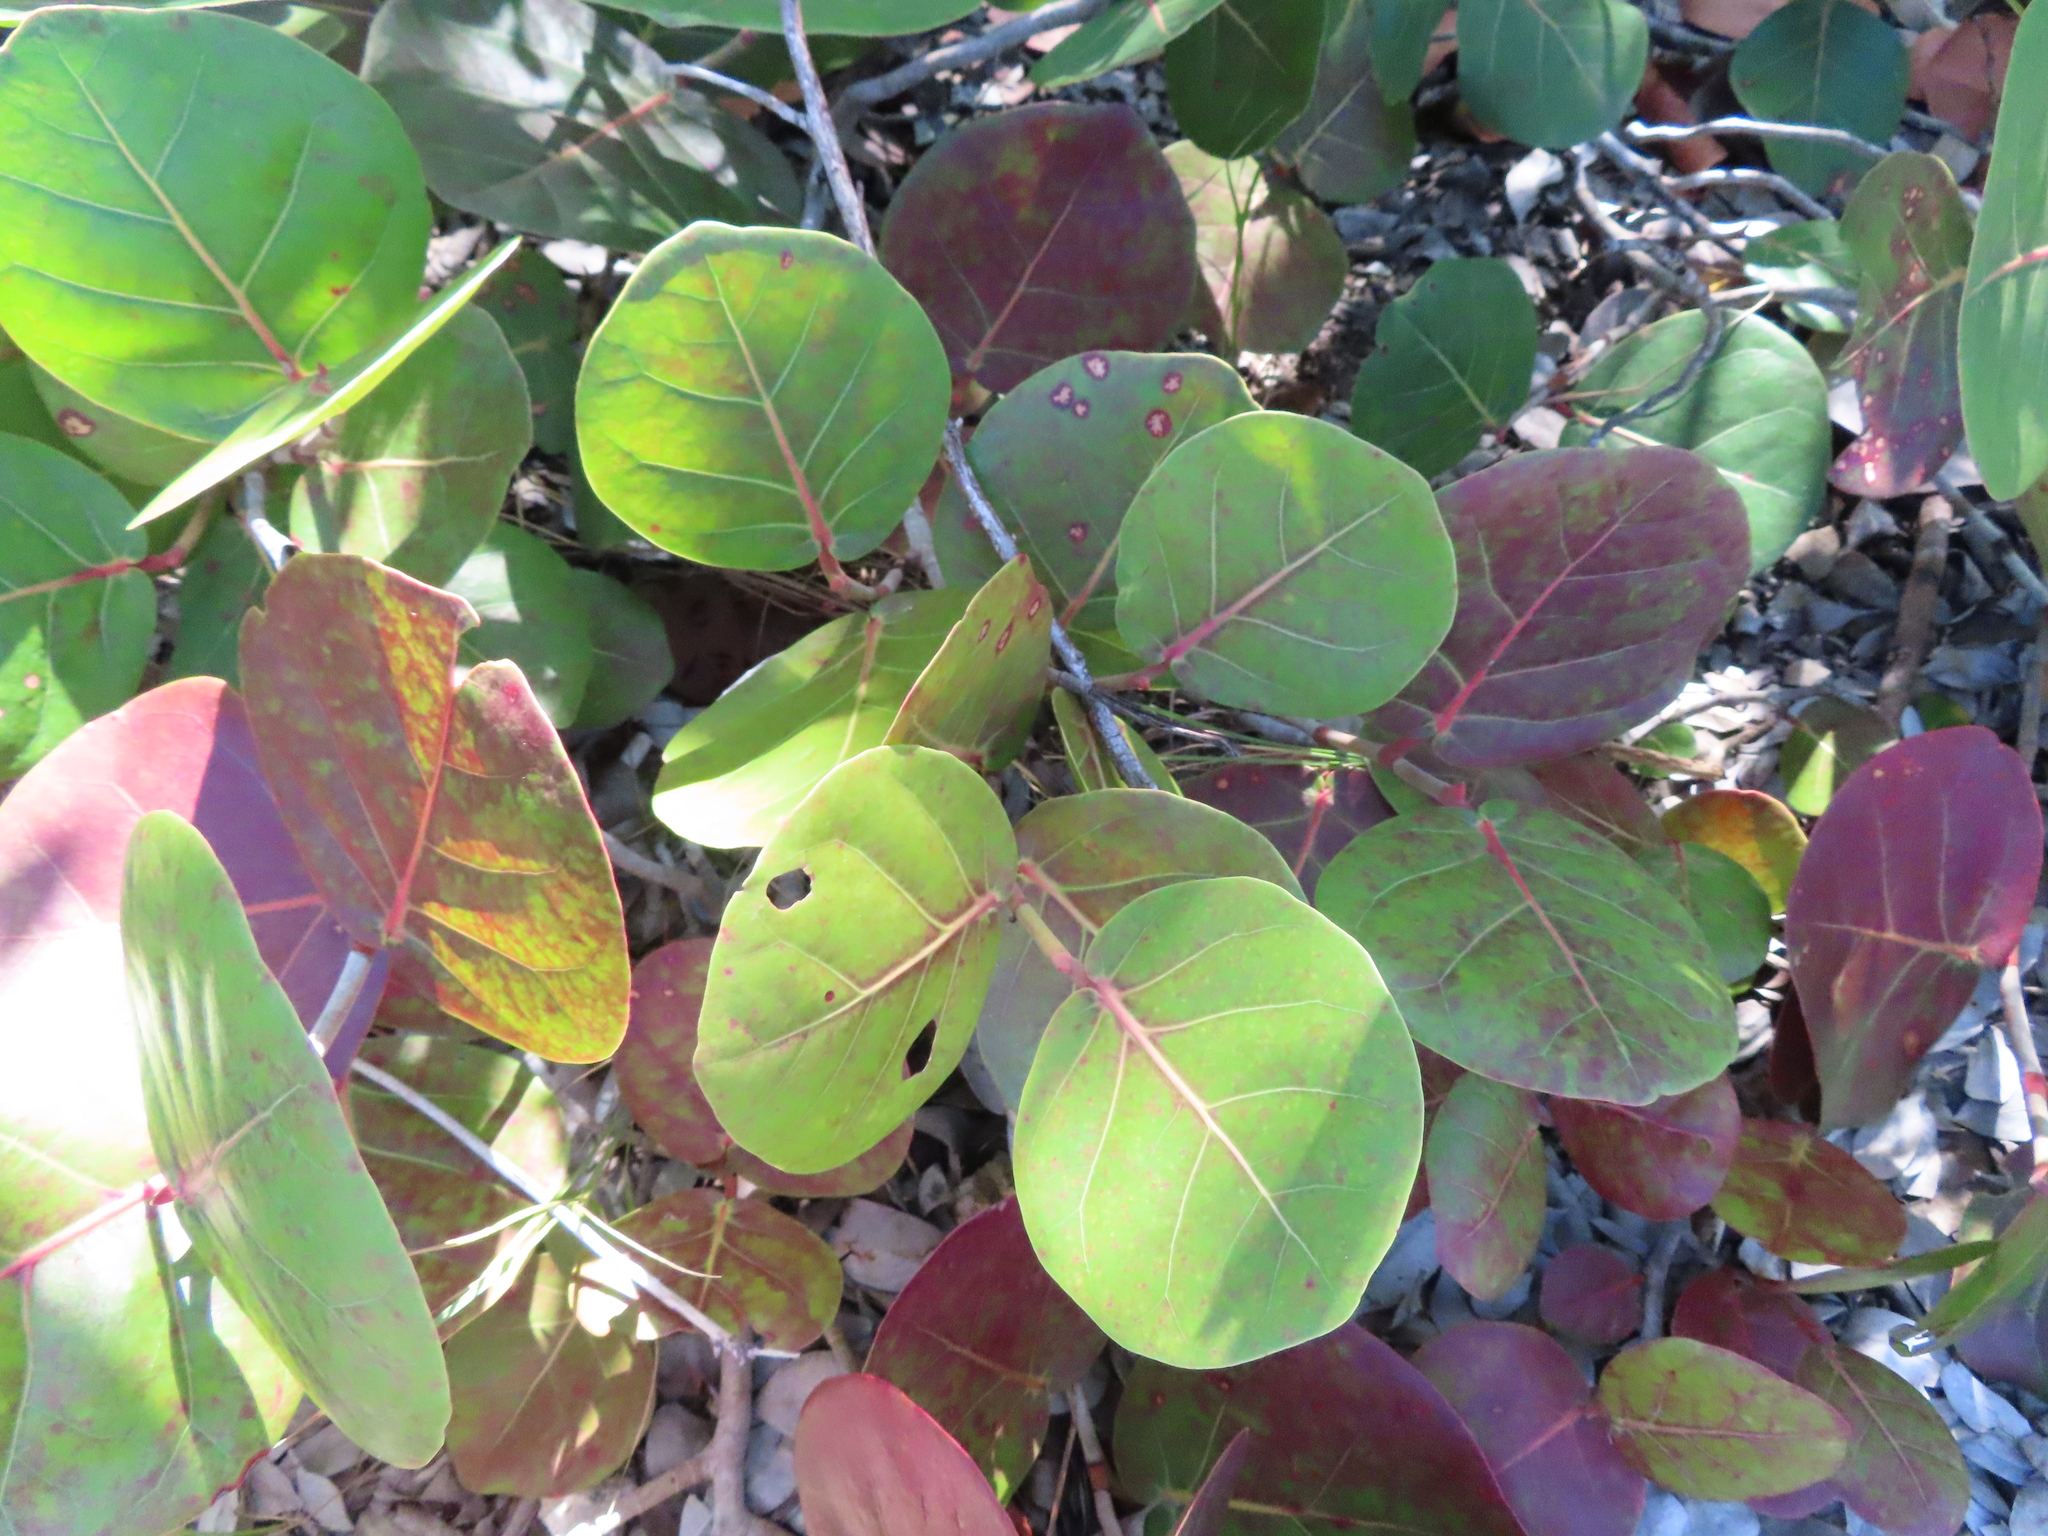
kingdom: Plantae
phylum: Tracheophyta
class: Magnoliopsida
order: Caryophyllales
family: Polygonaceae
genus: Coccoloba
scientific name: Coccoloba uvifera
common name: Seagrape
